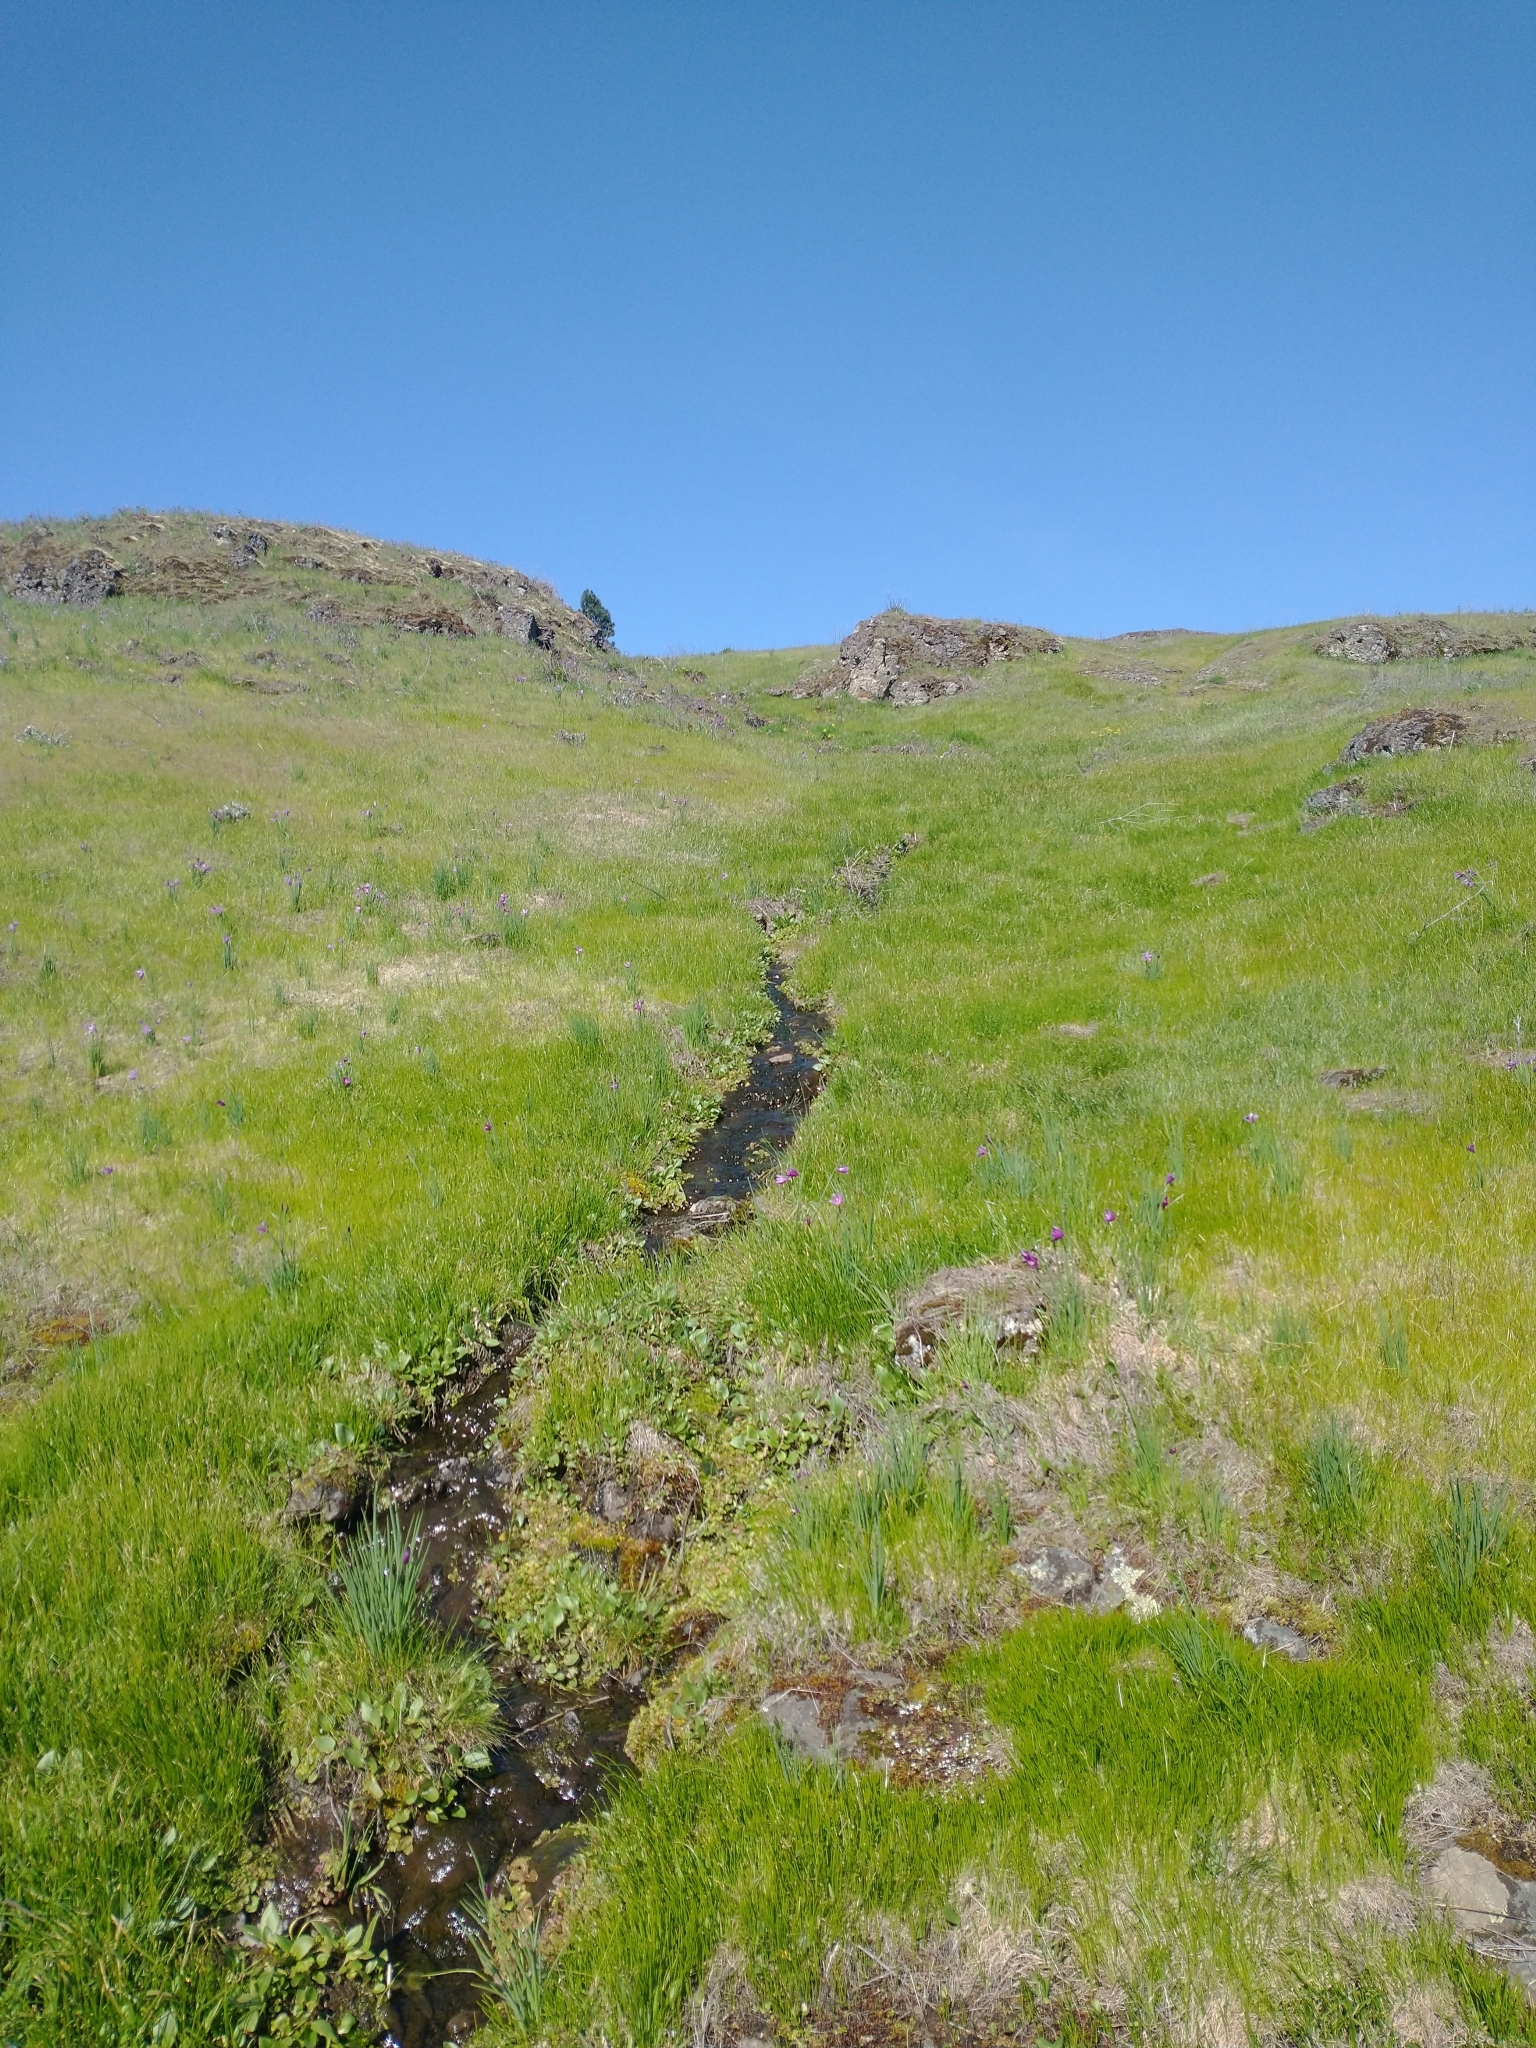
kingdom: Plantae
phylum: Tracheophyta
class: Liliopsida
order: Asparagales
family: Iridaceae
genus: Olsynium
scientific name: Olsynium douglasii
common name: Douglas' grasswidow
